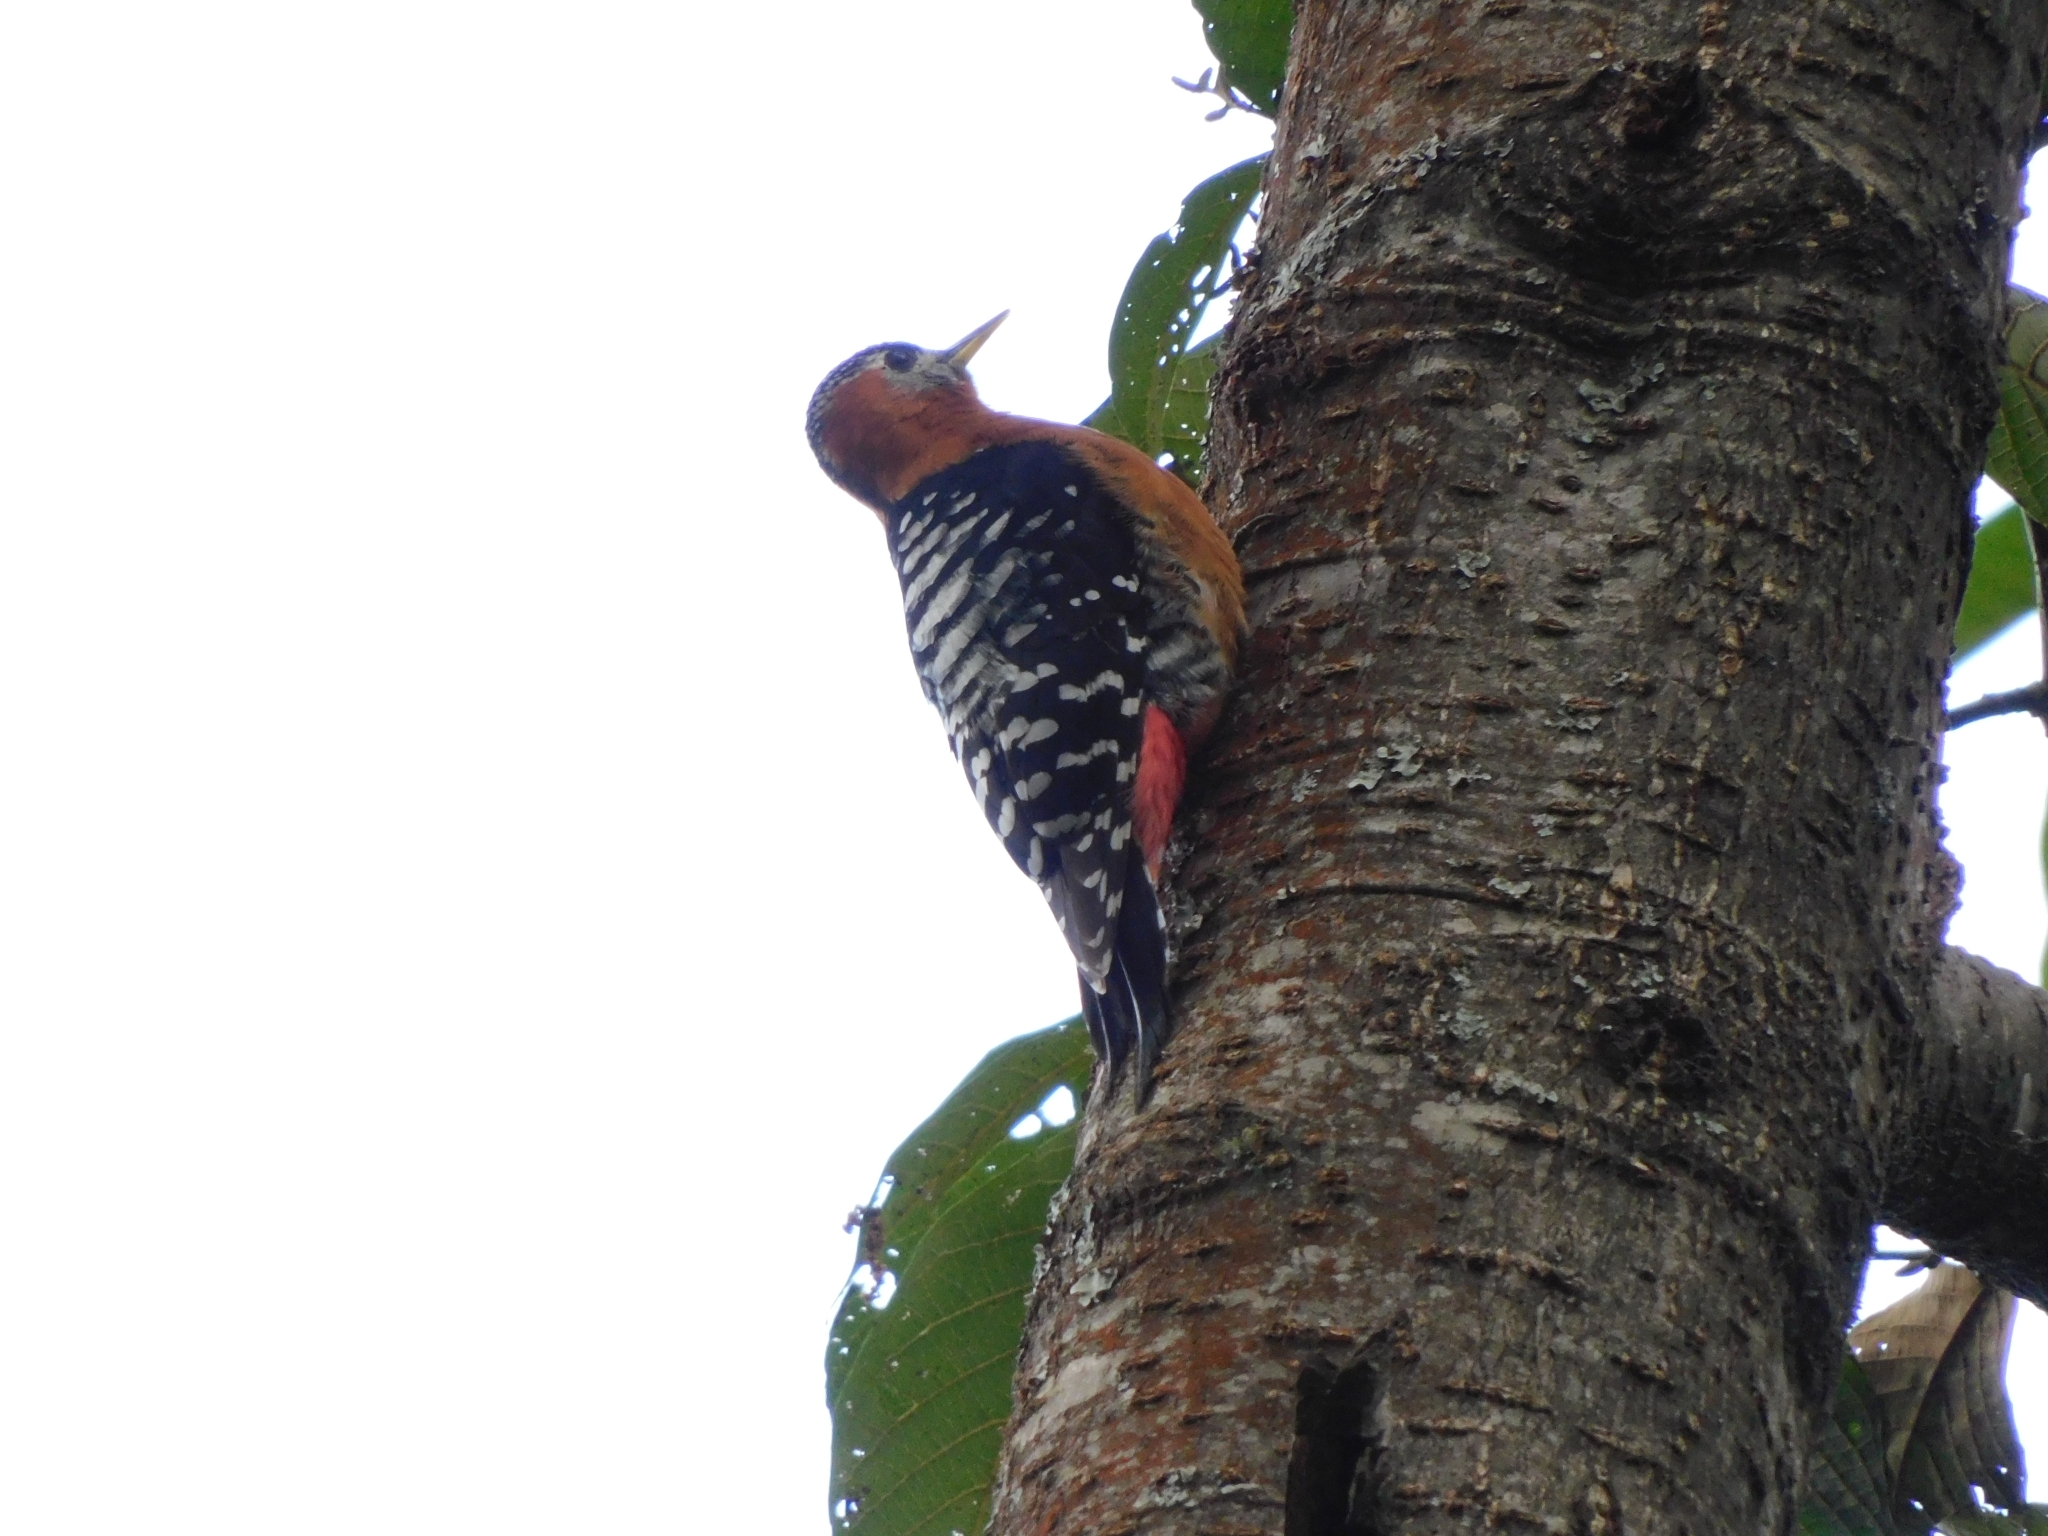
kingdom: Animalia
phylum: Chordata
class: Aves
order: Piciformes
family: Picidae
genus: Dendrocopos
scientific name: Dendrocopos hyperythrus
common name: Rufous-bellied woodpecker
